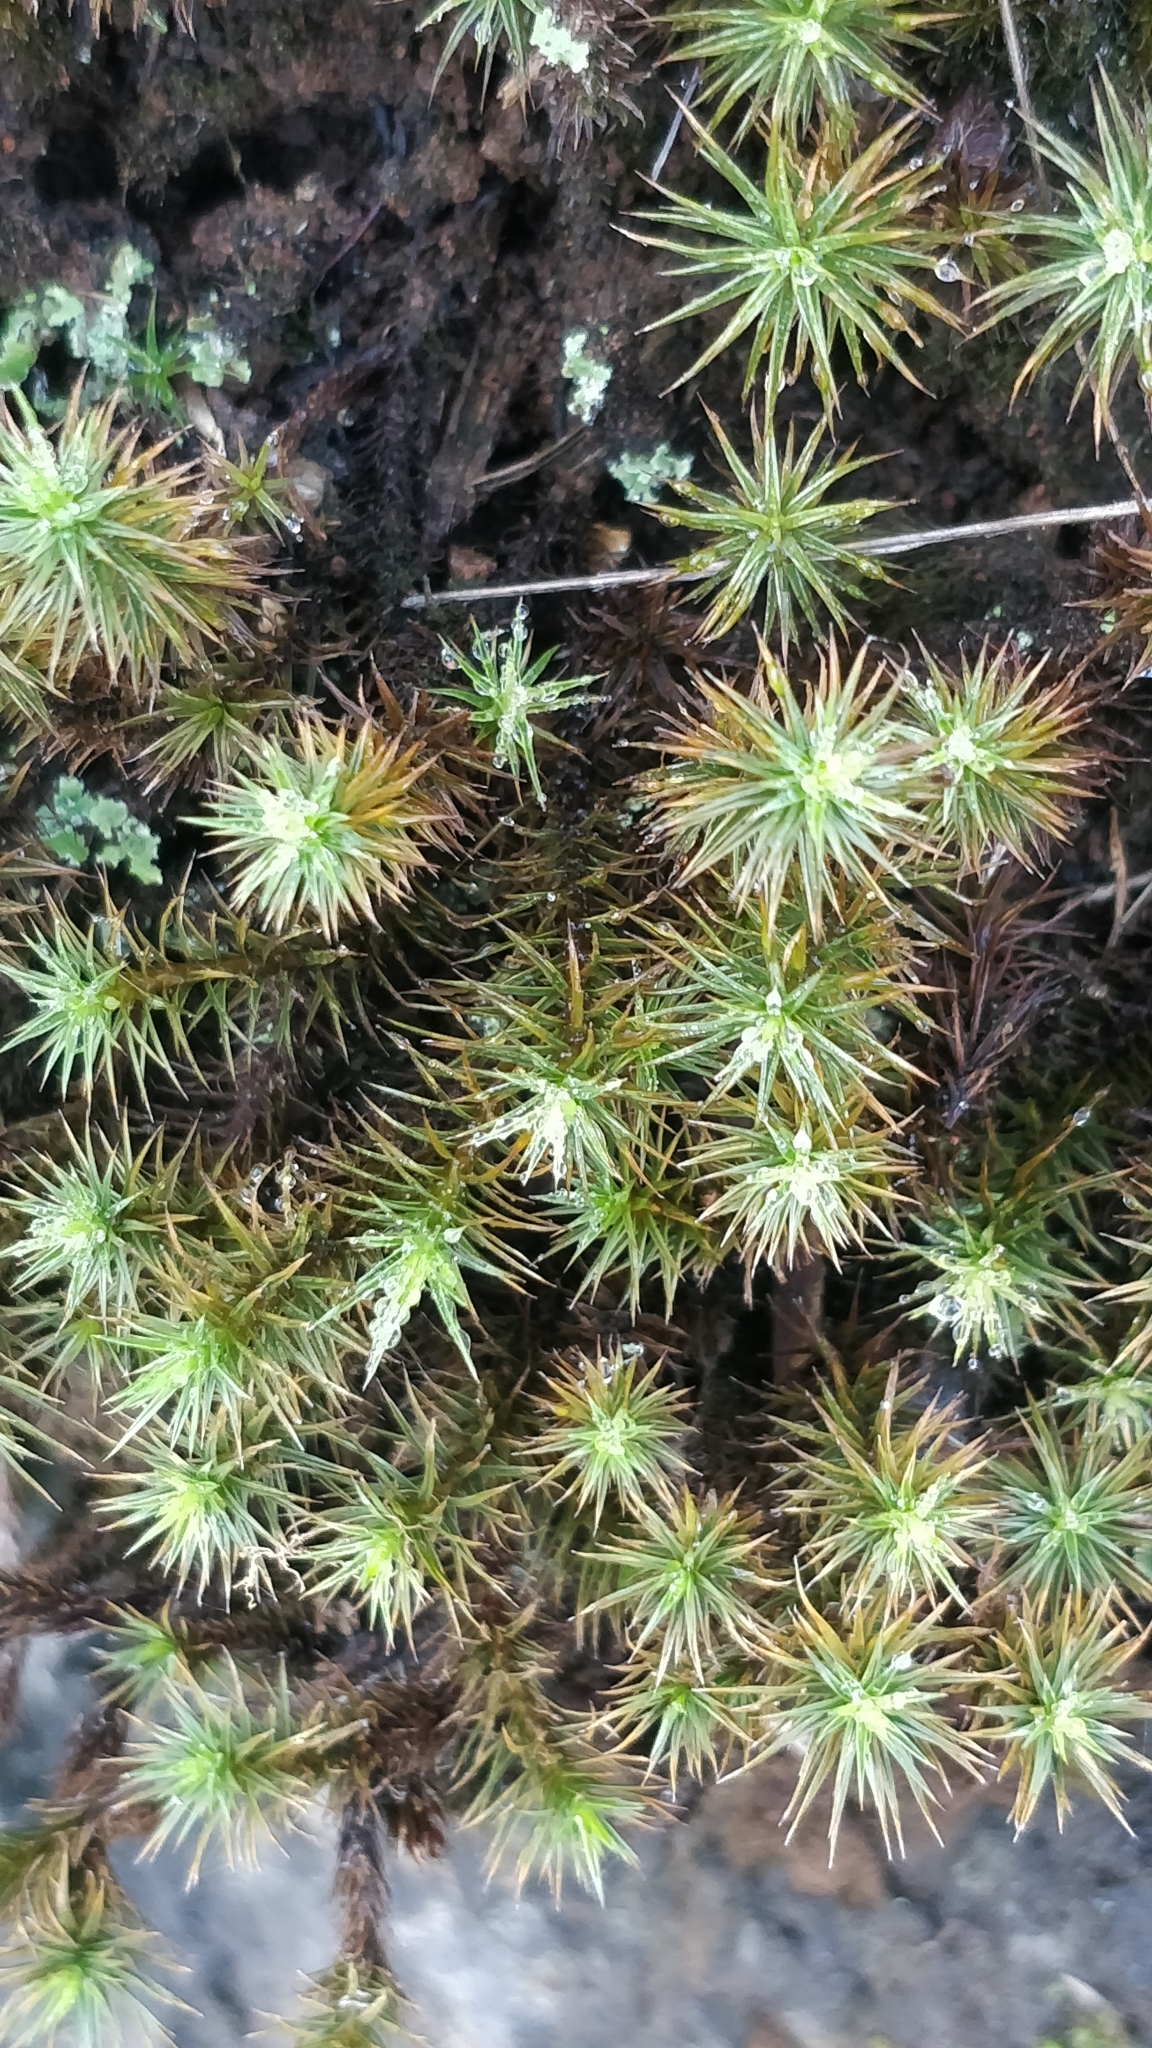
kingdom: Plantae
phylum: Bryophyta
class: Polytrichopsida
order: Polytrichales
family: Polytrichaceae
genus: Polytrichum
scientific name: Polytrichum juniperinum
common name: Juniper haircap moss
